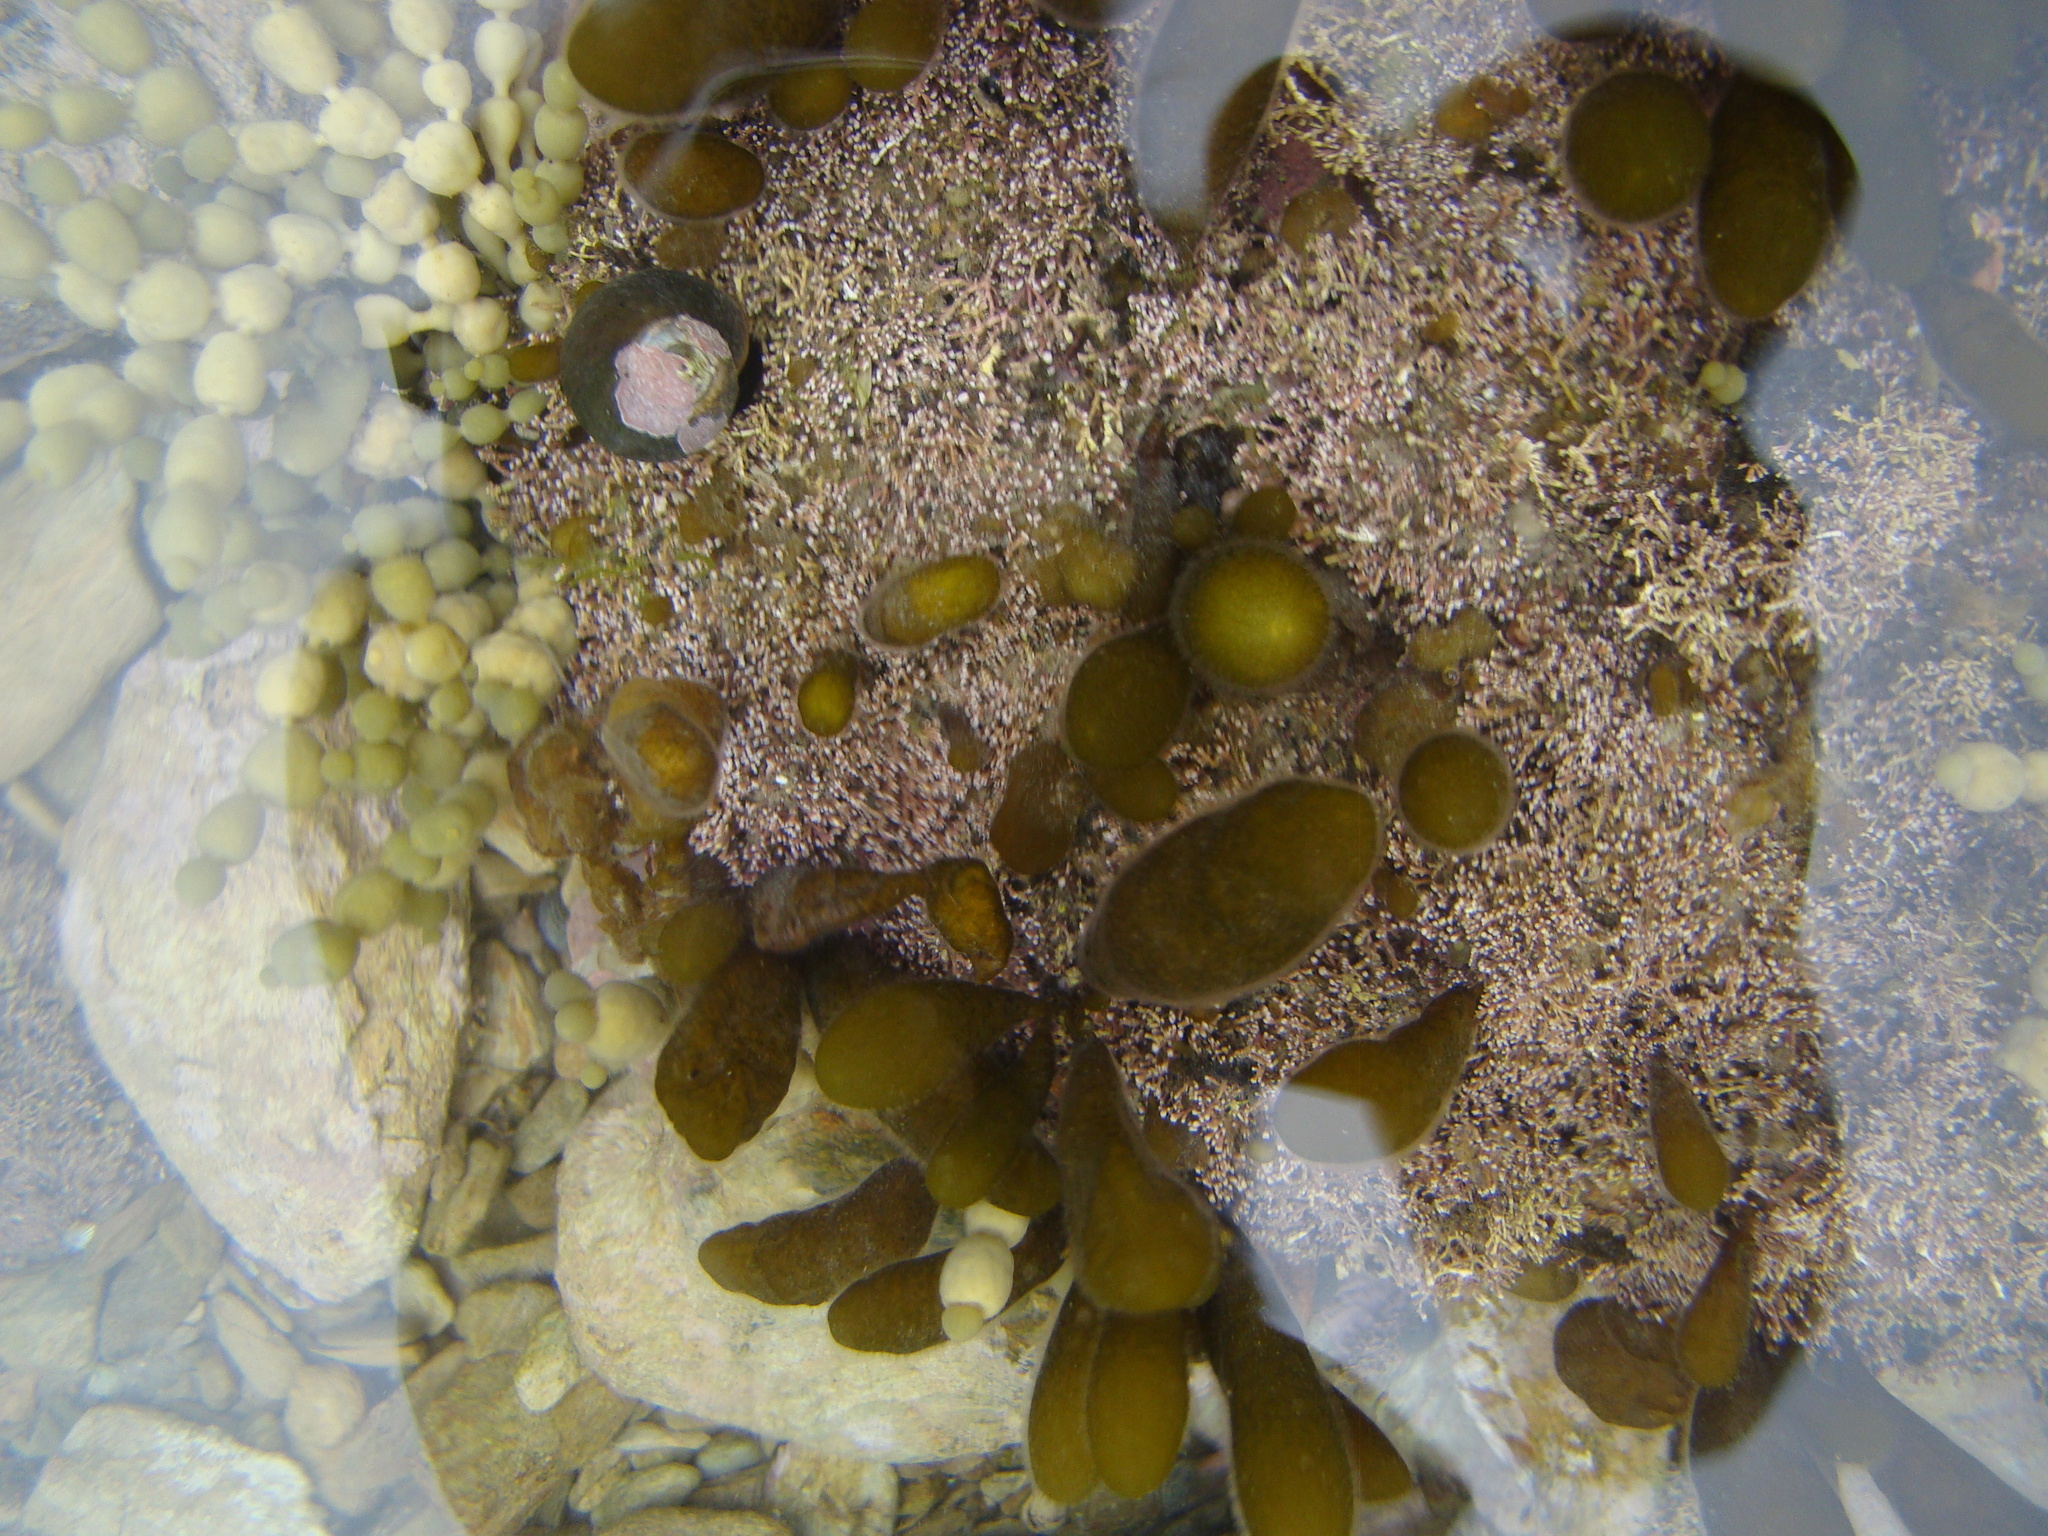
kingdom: Chromista
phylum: Ochrophyta
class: Phaeophyceae
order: Ectocarpales
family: Adenocystaceae
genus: Adenocystis
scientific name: Adenocystis utricularis
